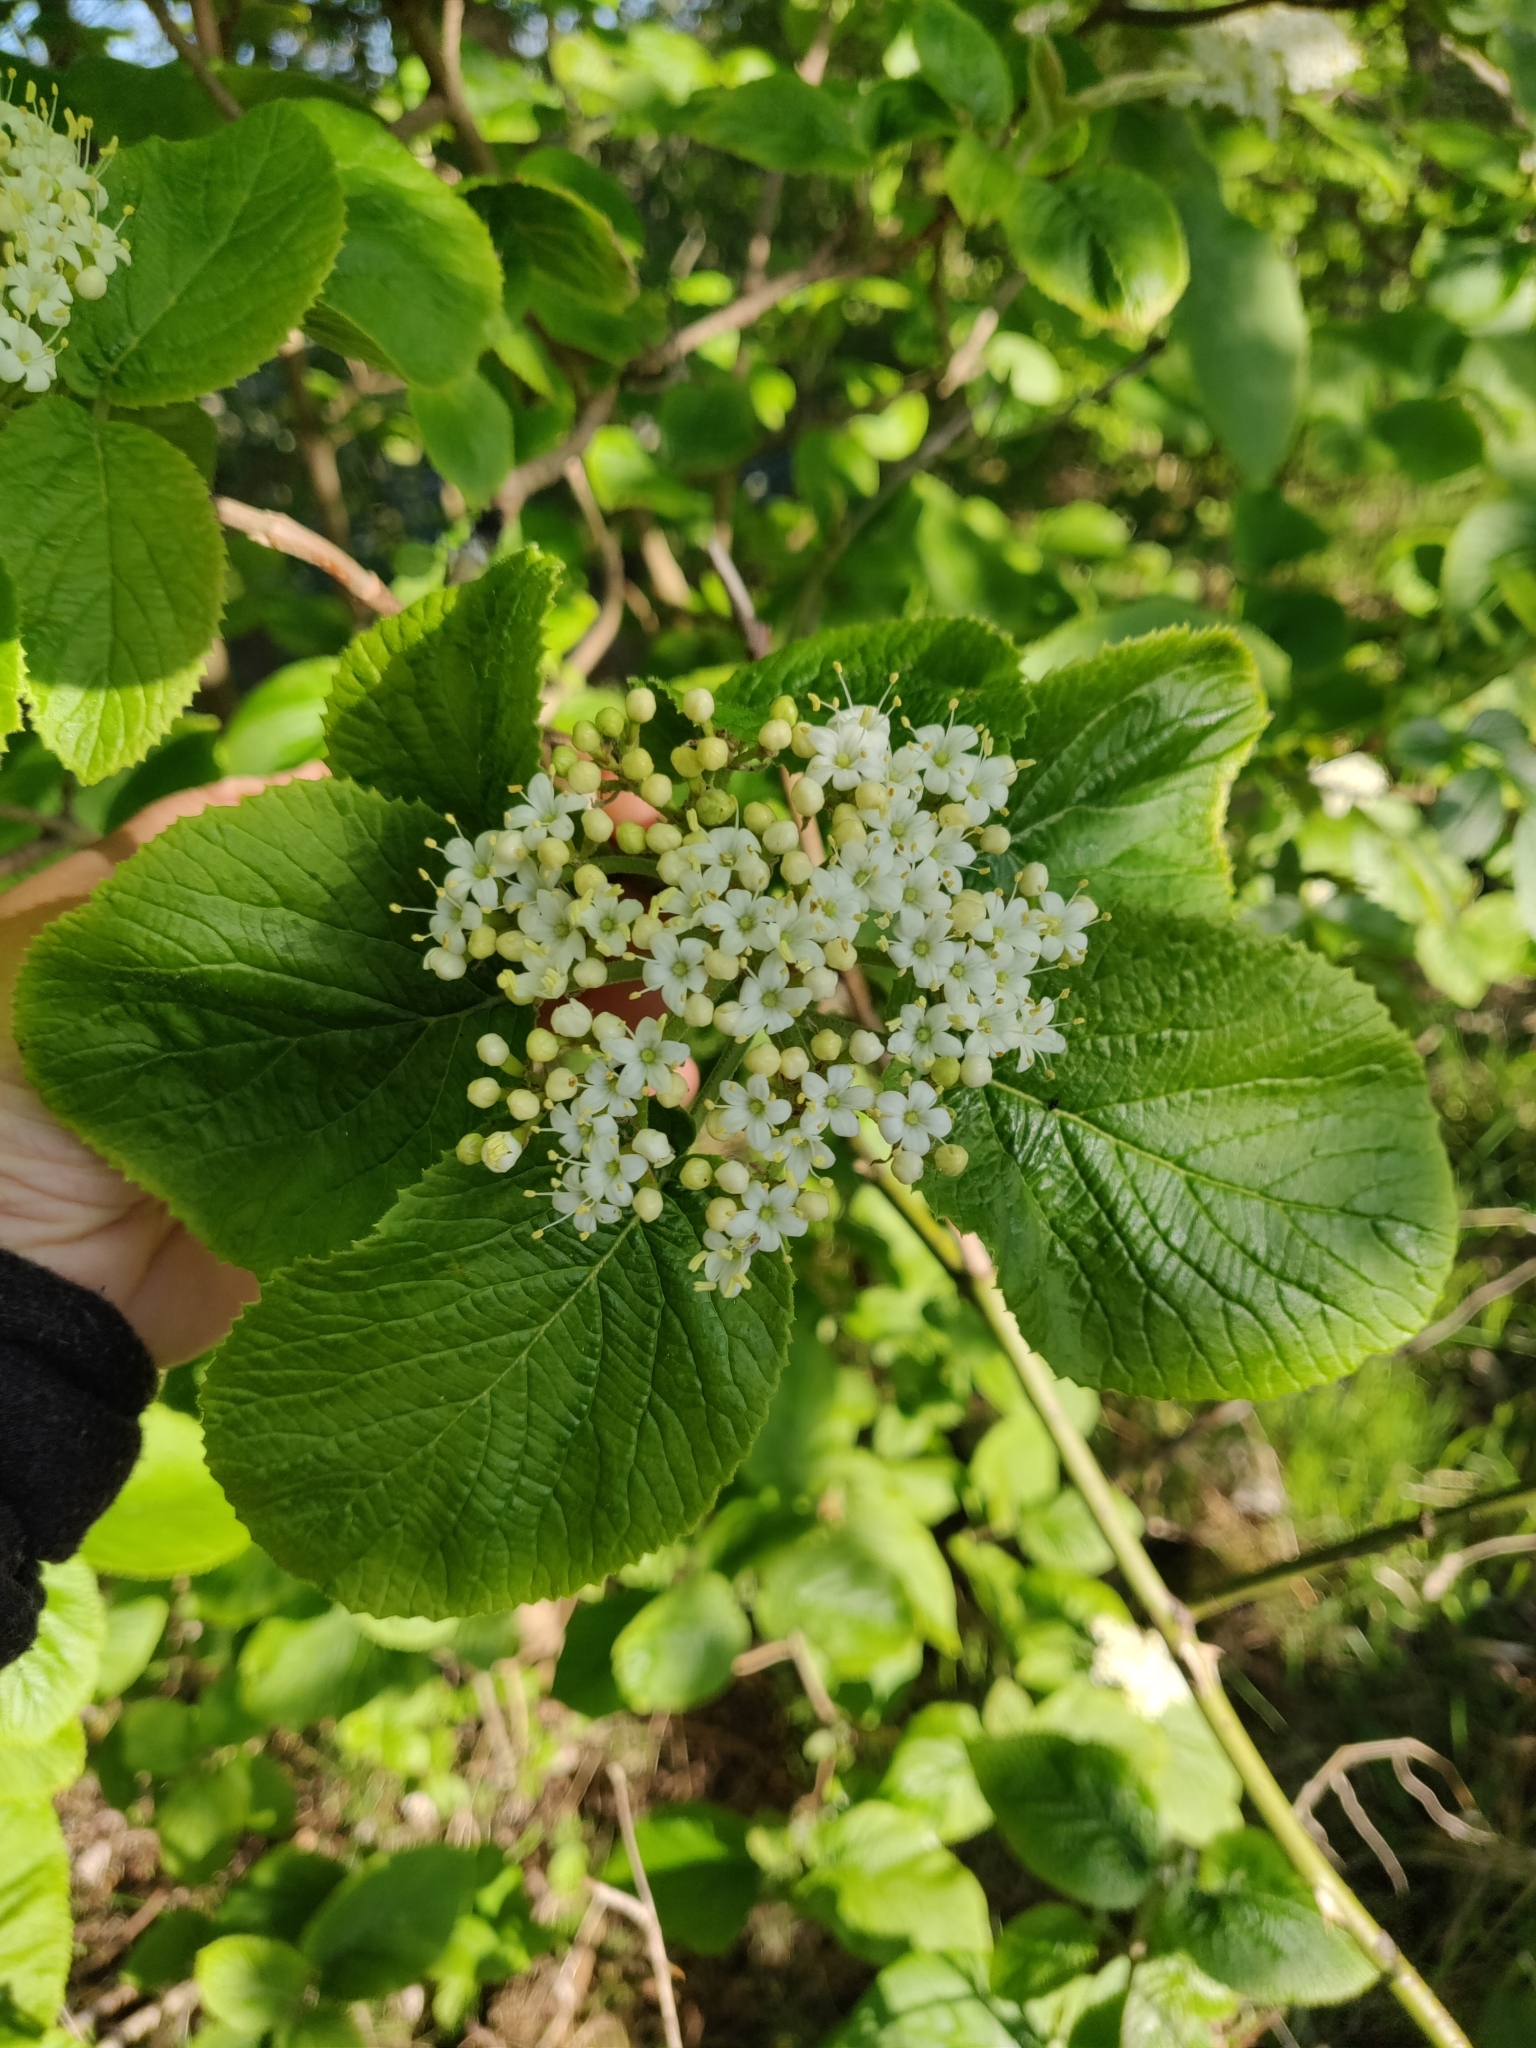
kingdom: Plantae
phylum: Tracheophyta
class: Magnoliopsida
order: Dipsacales
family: Viburnaceae
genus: Viburnum
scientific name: Viburnum lantana
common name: Wayfaring tree
